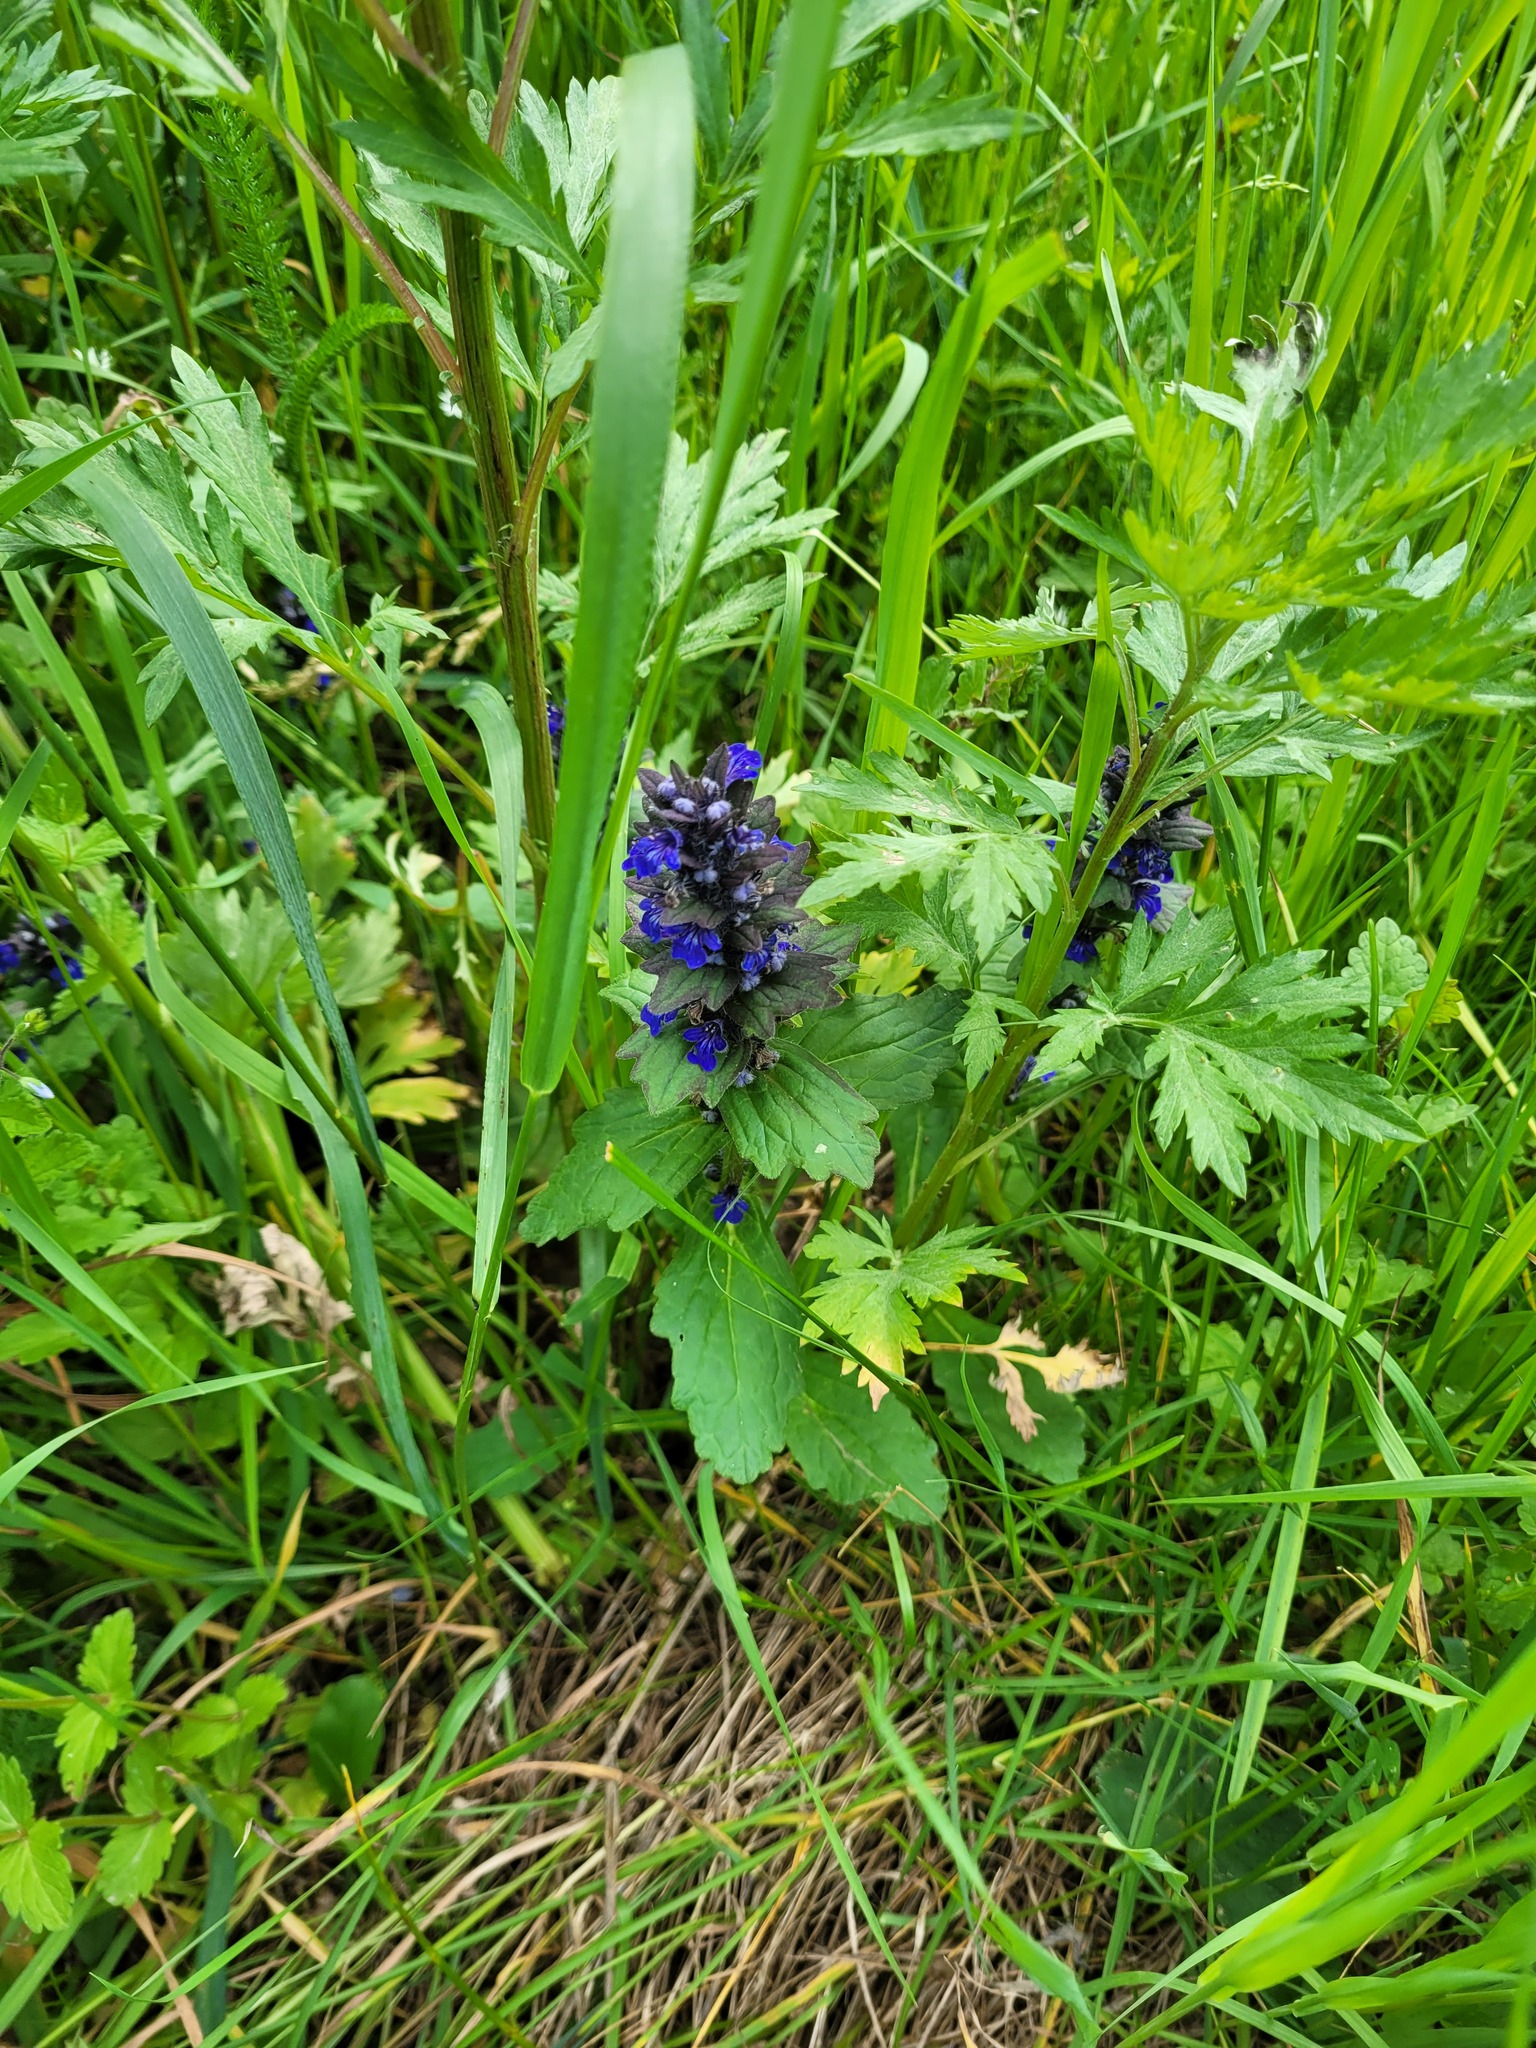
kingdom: Plantae
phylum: Tracheophyta
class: Magnoliopsida
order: Lamiales
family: Lamiaceae
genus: Ajuga
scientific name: Ajuga genevensis
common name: Blue bugle
